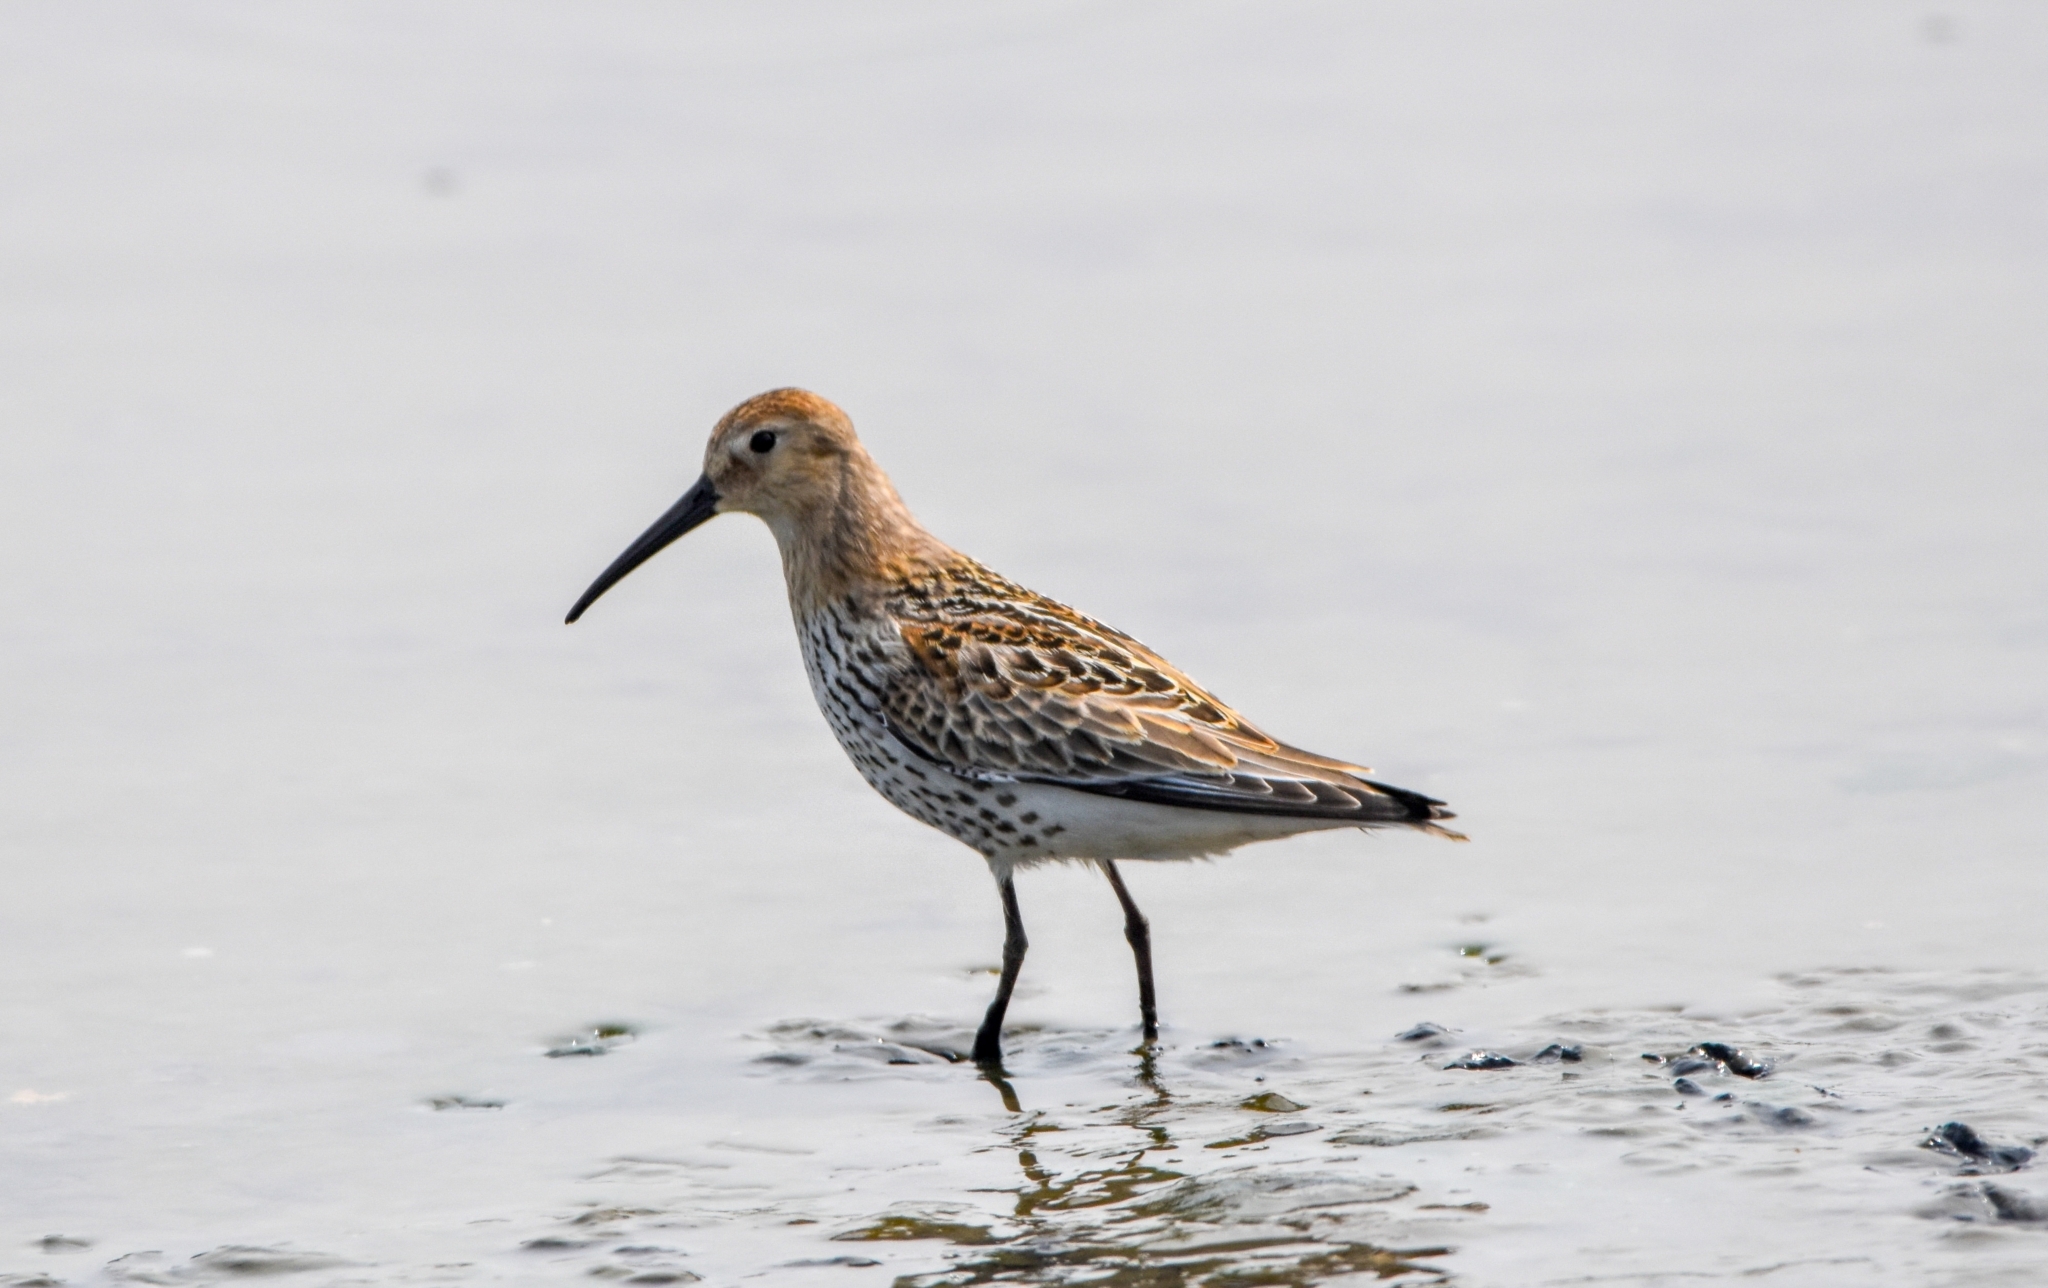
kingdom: Animalia
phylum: Chordata
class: Aves
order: Charadriiformes
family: Scolopacidae
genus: Calidris
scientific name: Calidris alpina
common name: Dunlin
